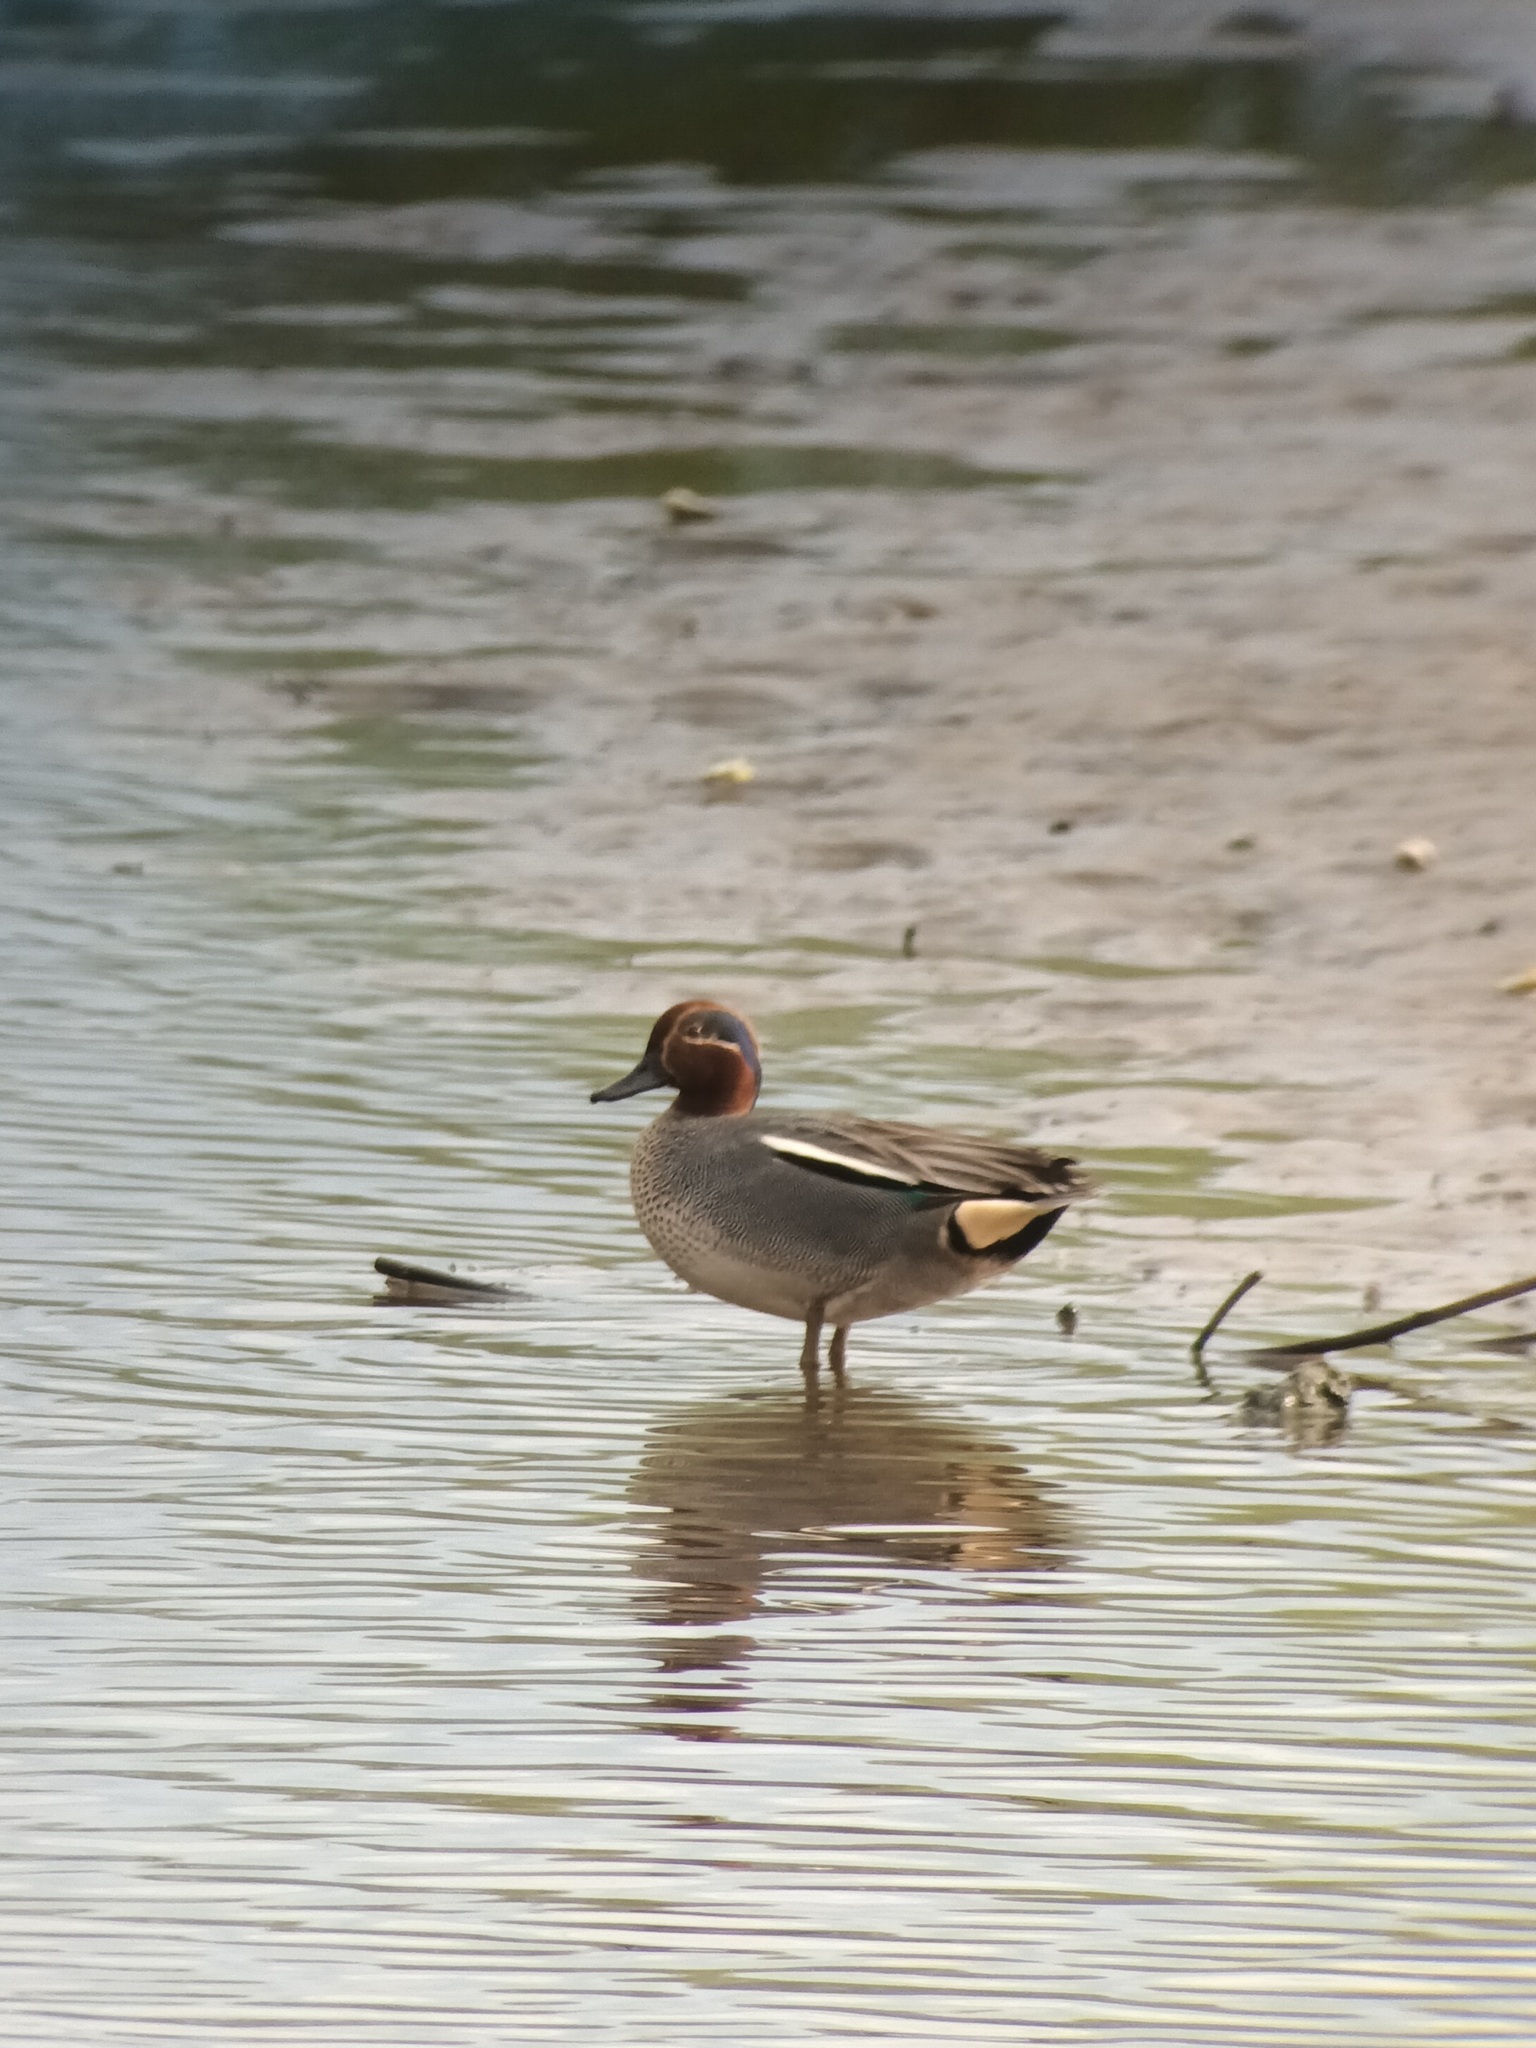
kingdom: Animalia
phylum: Chordata
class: Aves
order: Anseriformes
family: Anatidae
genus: Anas
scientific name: Anas crecca
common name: Eurasian teal
